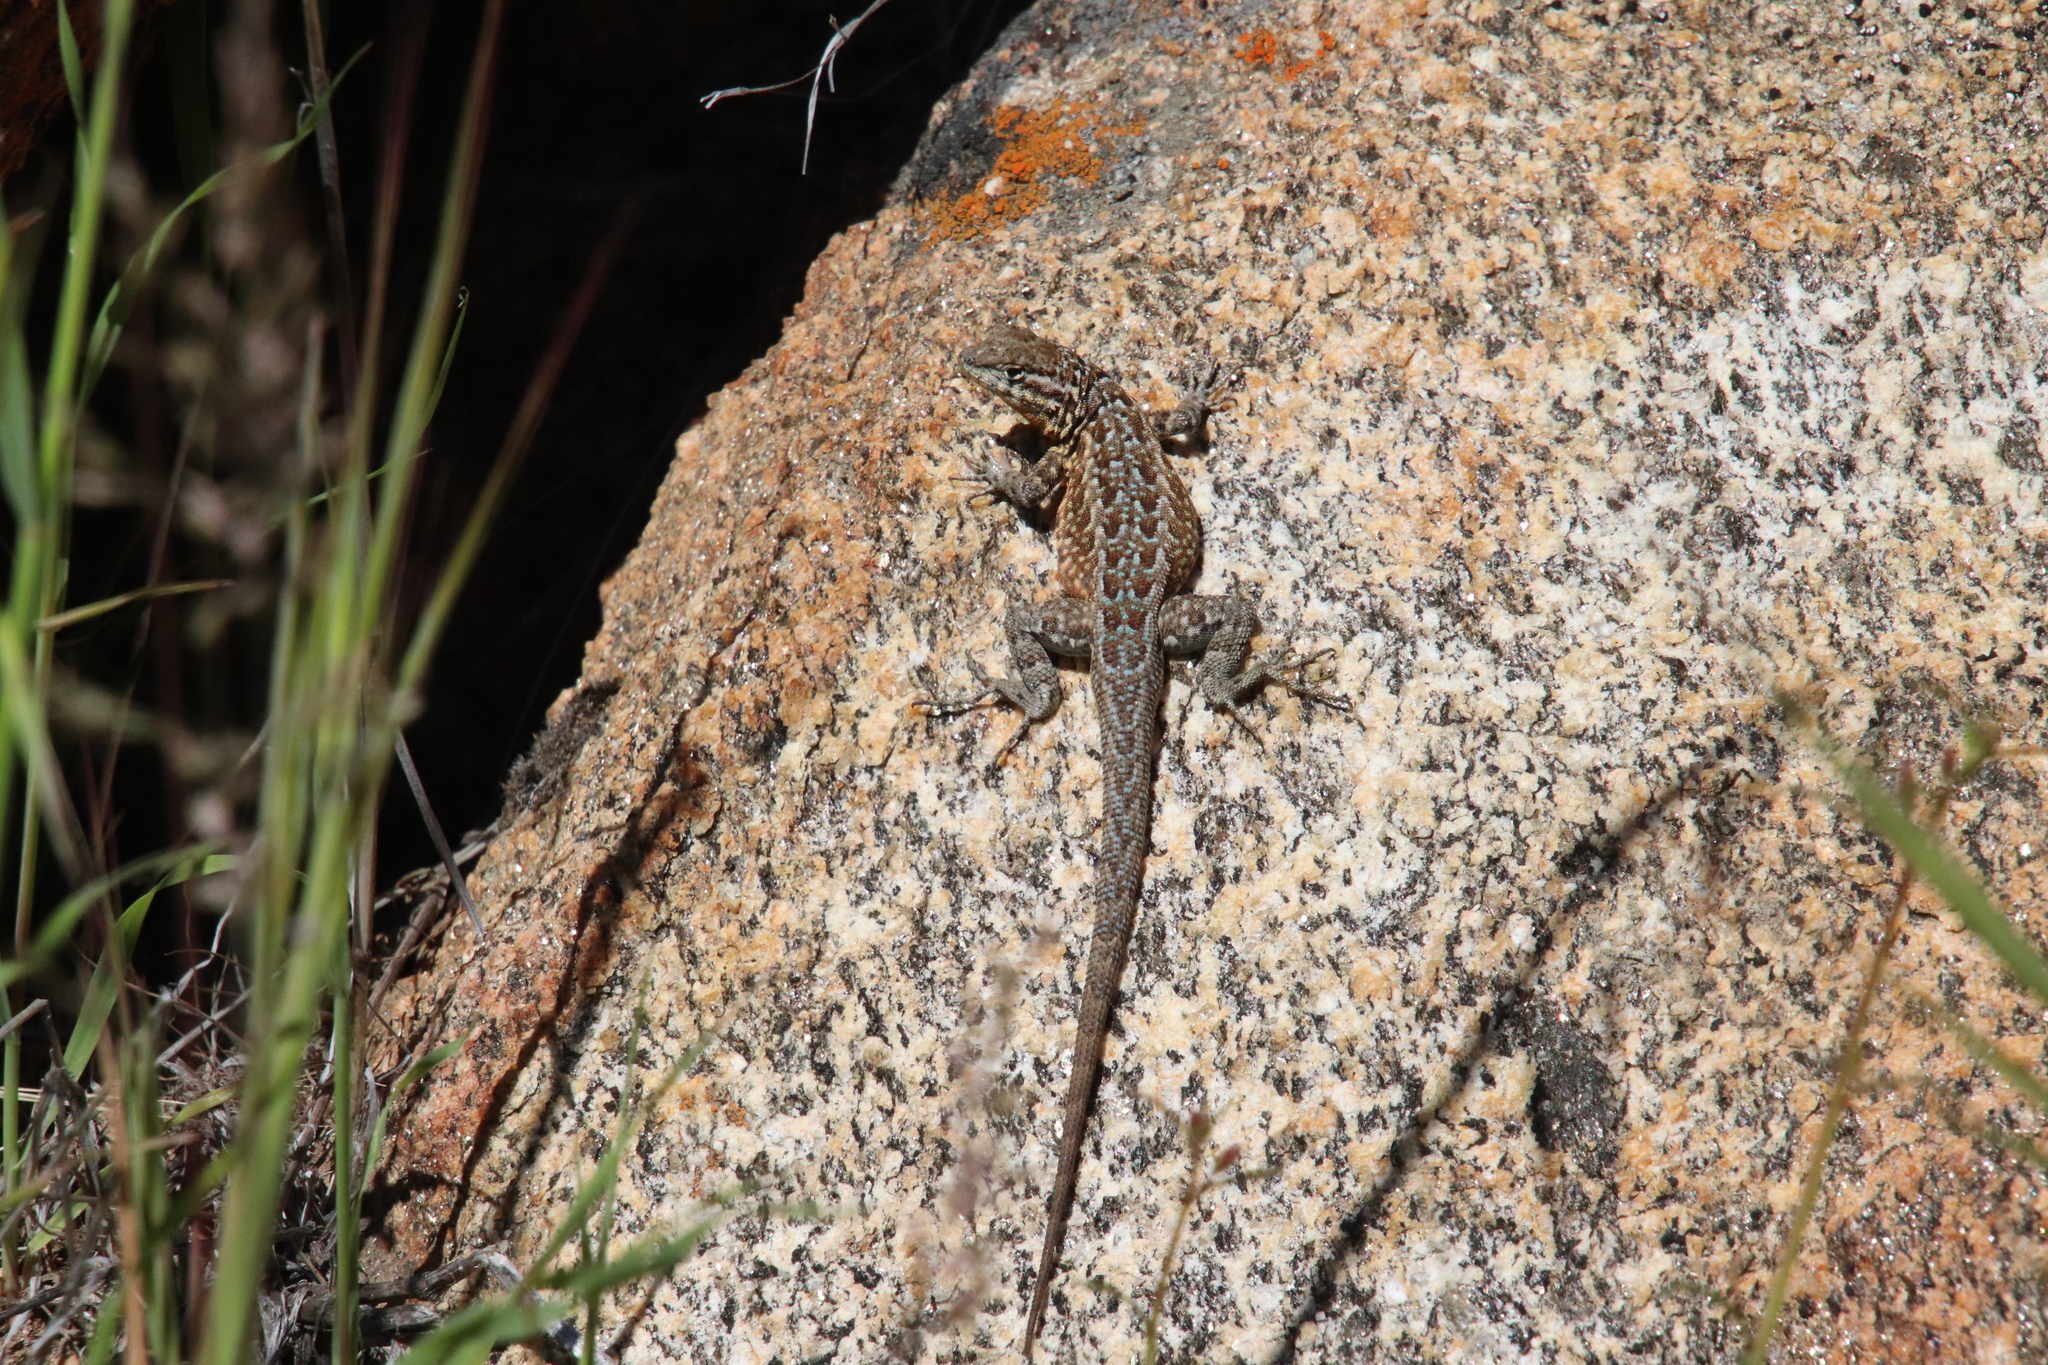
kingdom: Animalia
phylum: Chordata
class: Squamata
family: Phrynosomatidae
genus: Uta
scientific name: Uta stansburiana
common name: Side-blotched lizard
